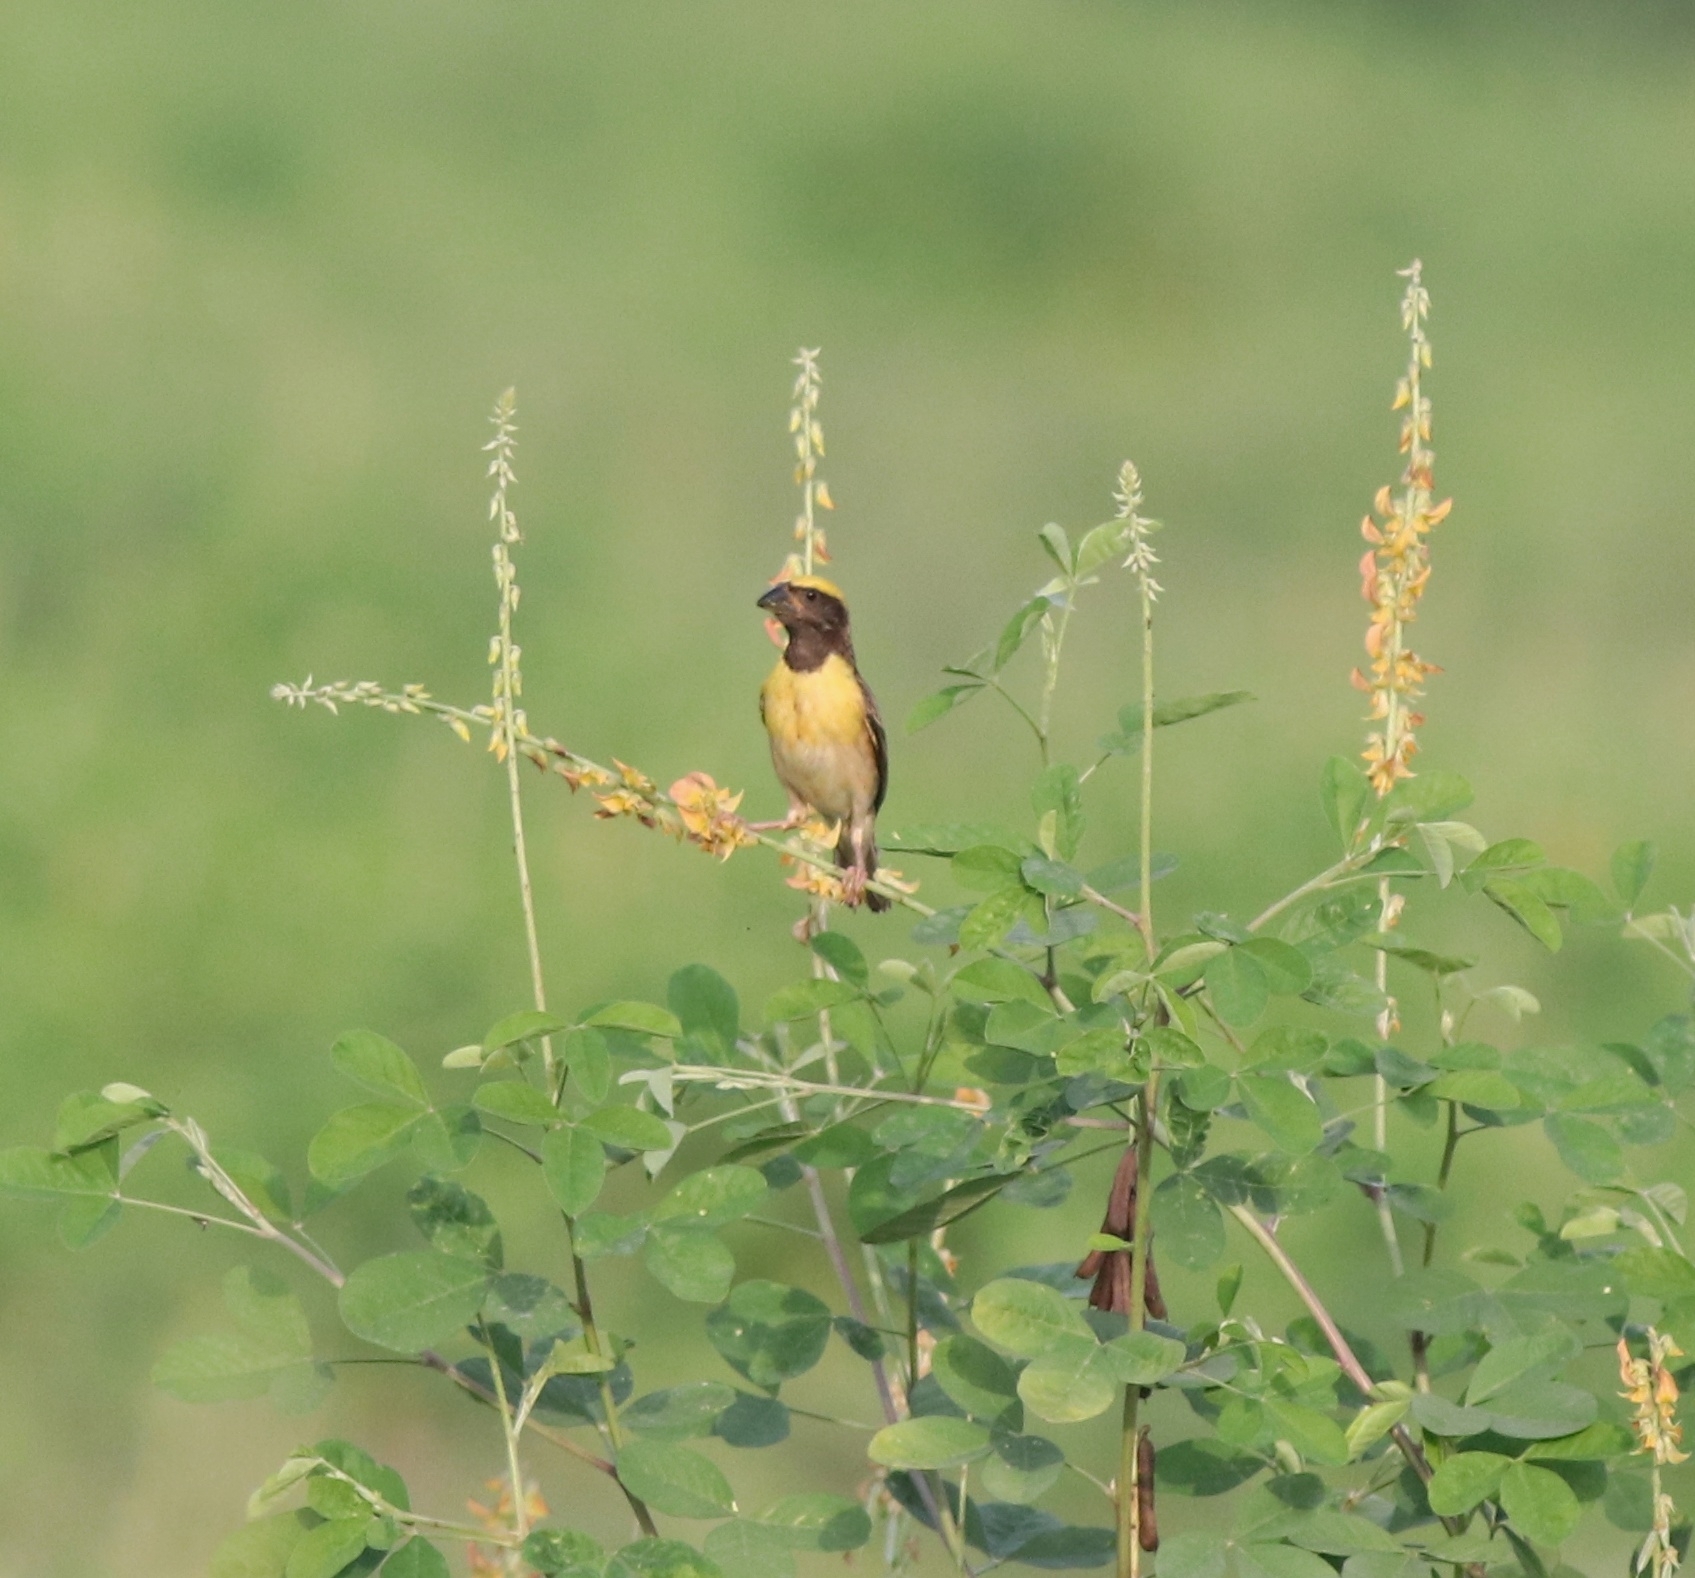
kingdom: Animalia
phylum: Chordata
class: Aves
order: Passeriformes
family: Ploceidae
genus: Ploceus
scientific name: Ploceus philippinus
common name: Baya weaver
